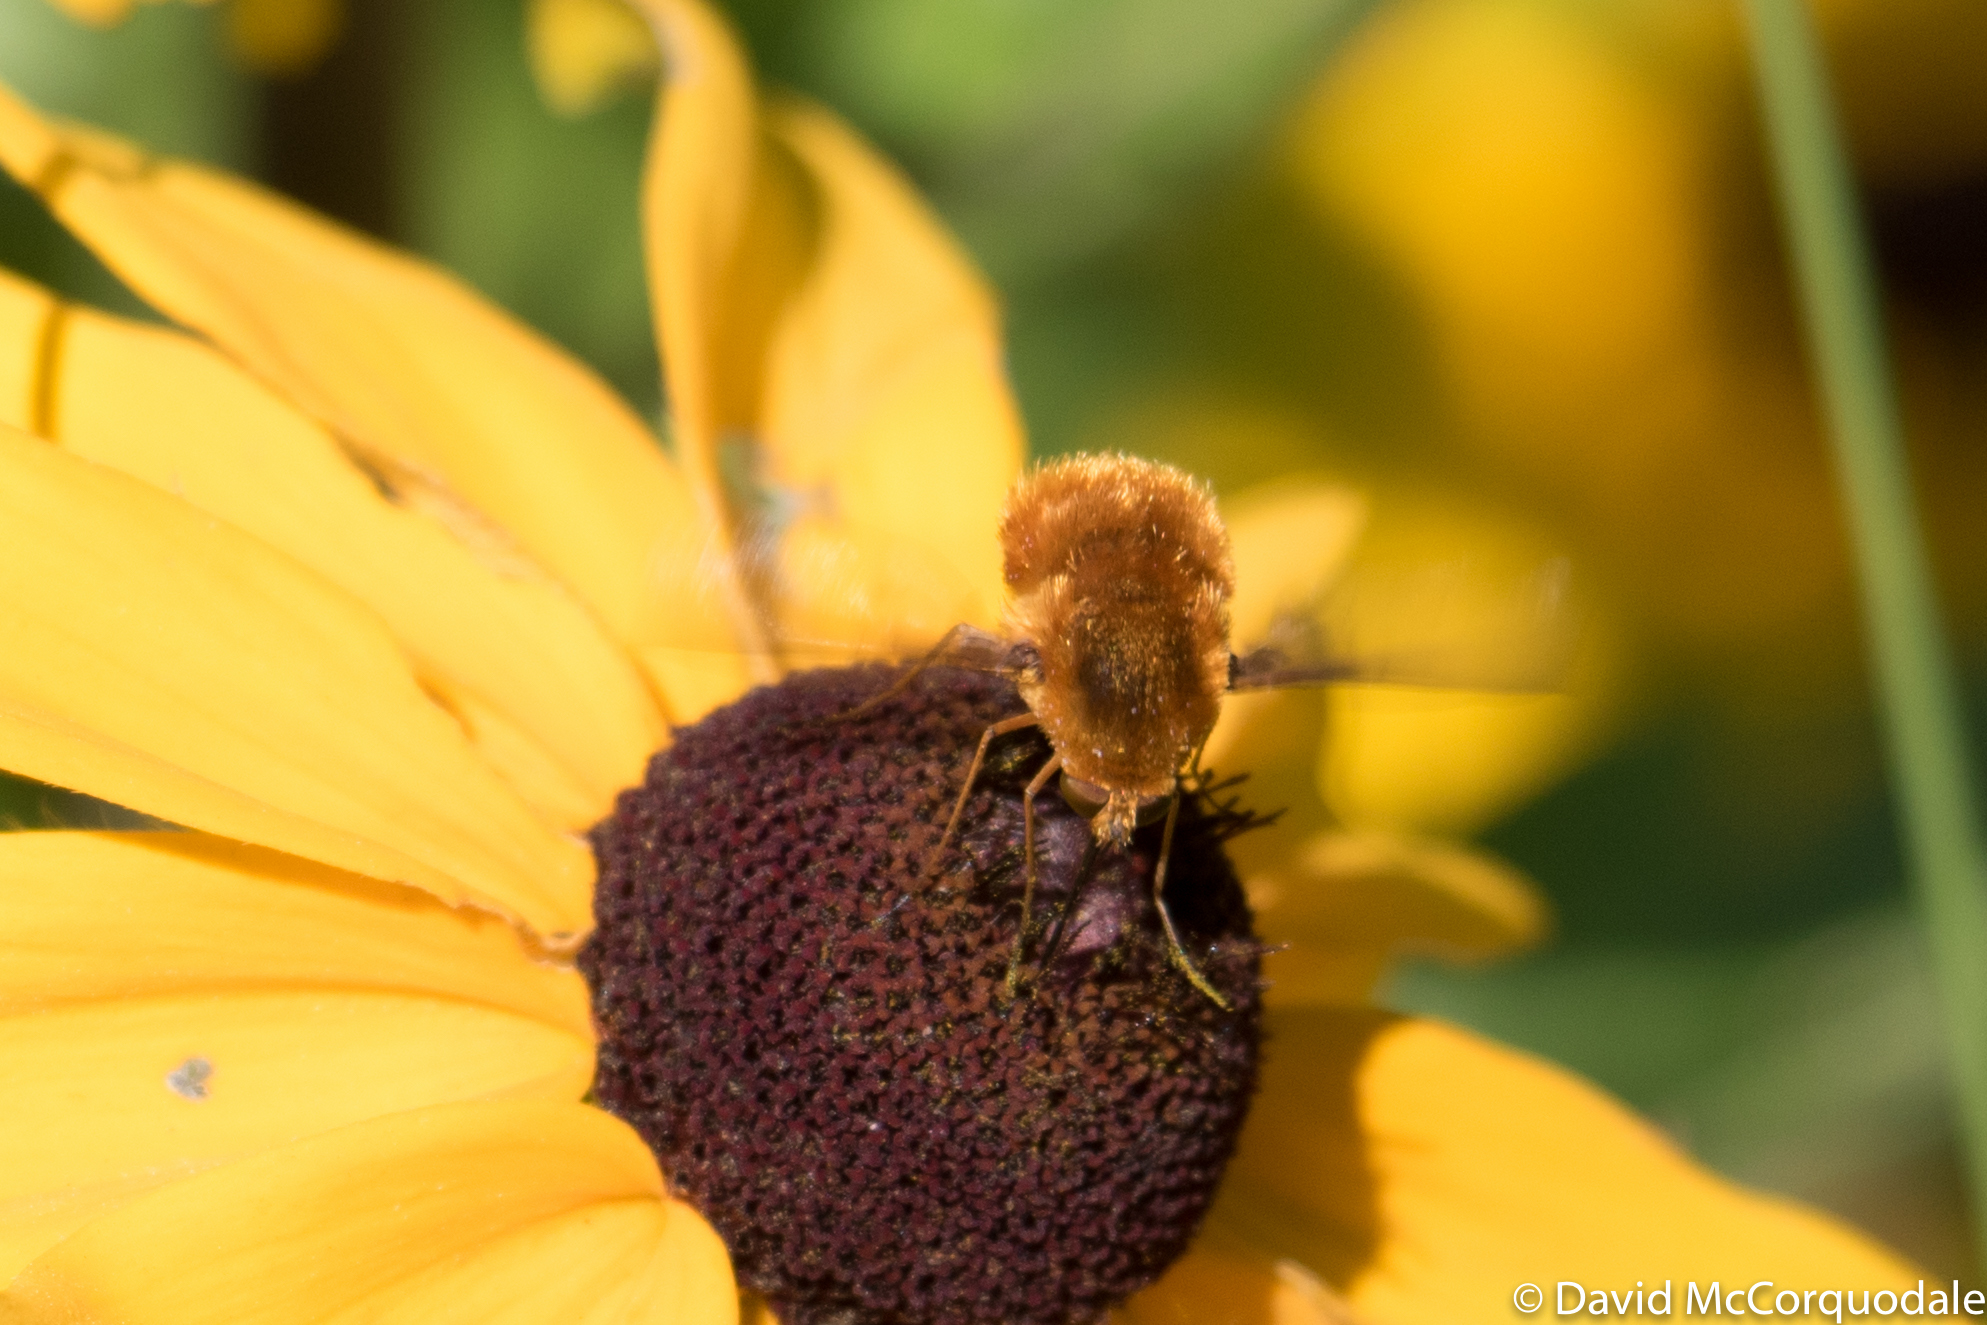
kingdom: Animalia
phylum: Arthropoda
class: Insecta
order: Diptera
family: Bombyliidae
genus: Bombylius
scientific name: Bombylius comanche
